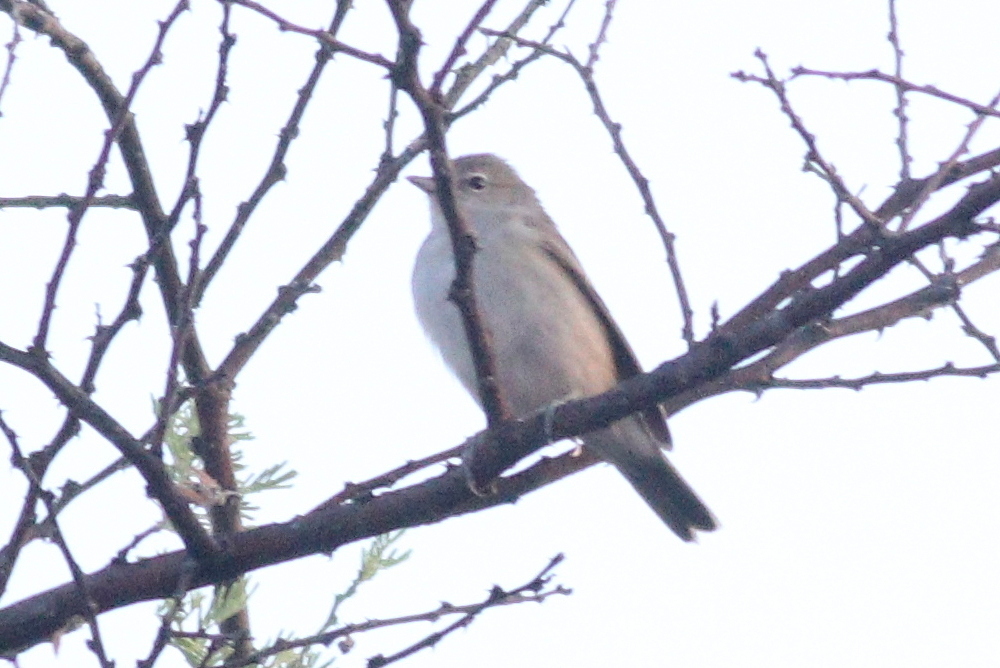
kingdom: Animalia
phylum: Chordata
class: Aves
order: Passeriformes
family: Sylviidae
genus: Sylvia
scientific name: Sylvia borin
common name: Garden warbler
